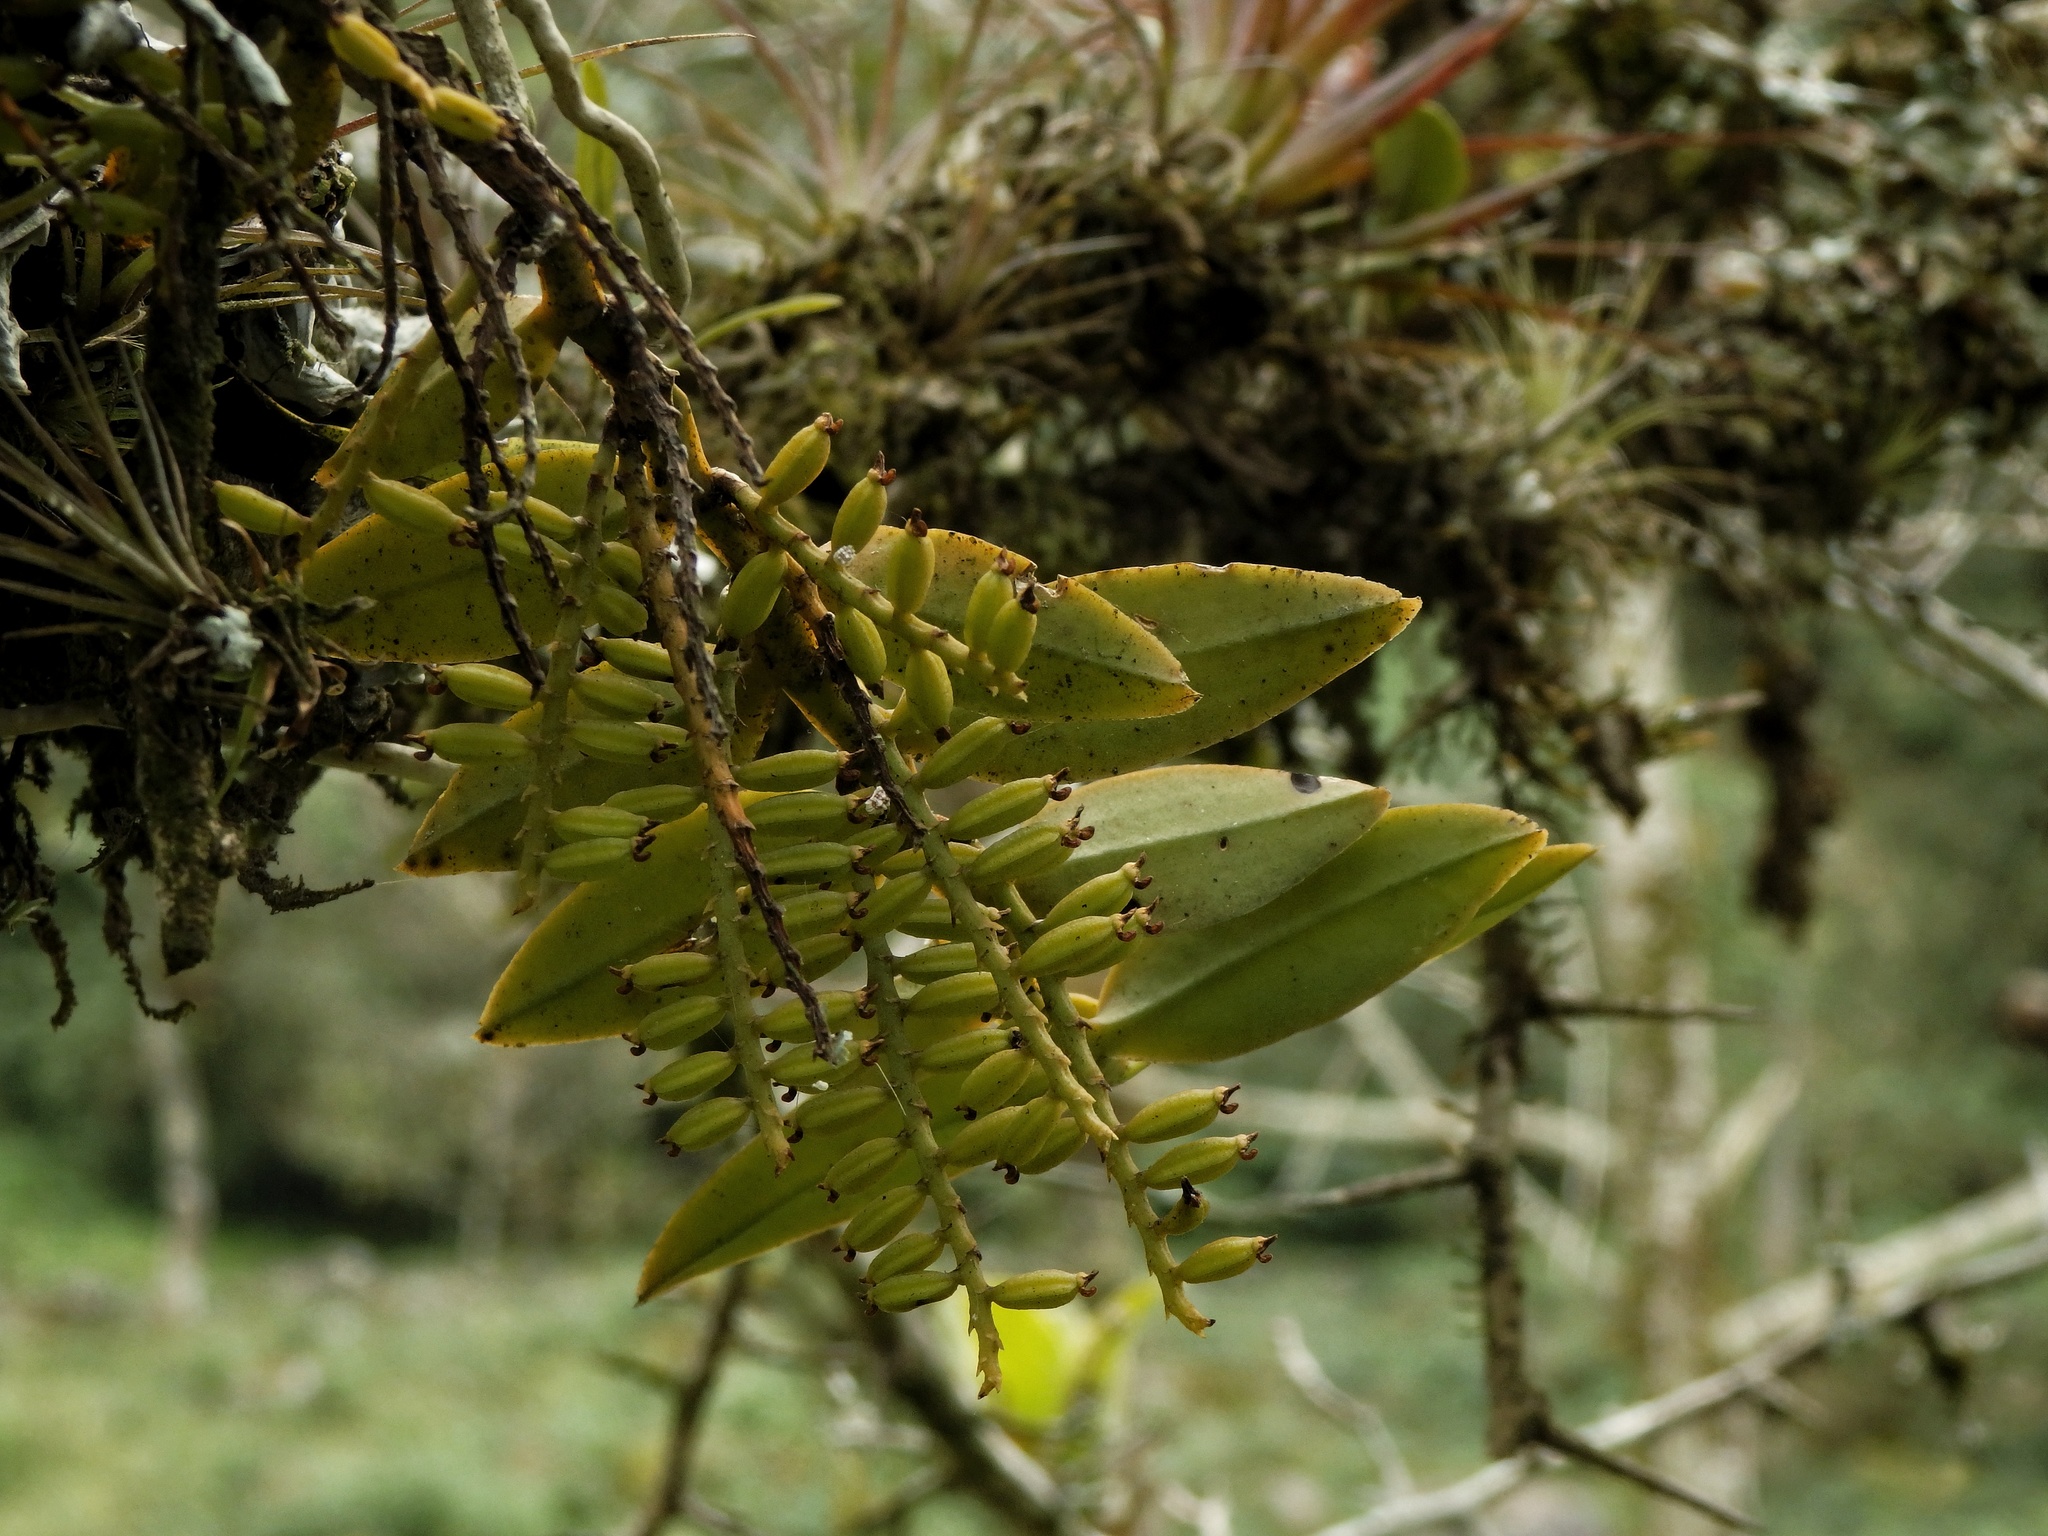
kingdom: Plantae
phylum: Tracheophyta
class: Liliopsida
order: Asparagales
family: Orchidaceae
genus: Campylocentrum
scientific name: Campylocentrum micranthum
